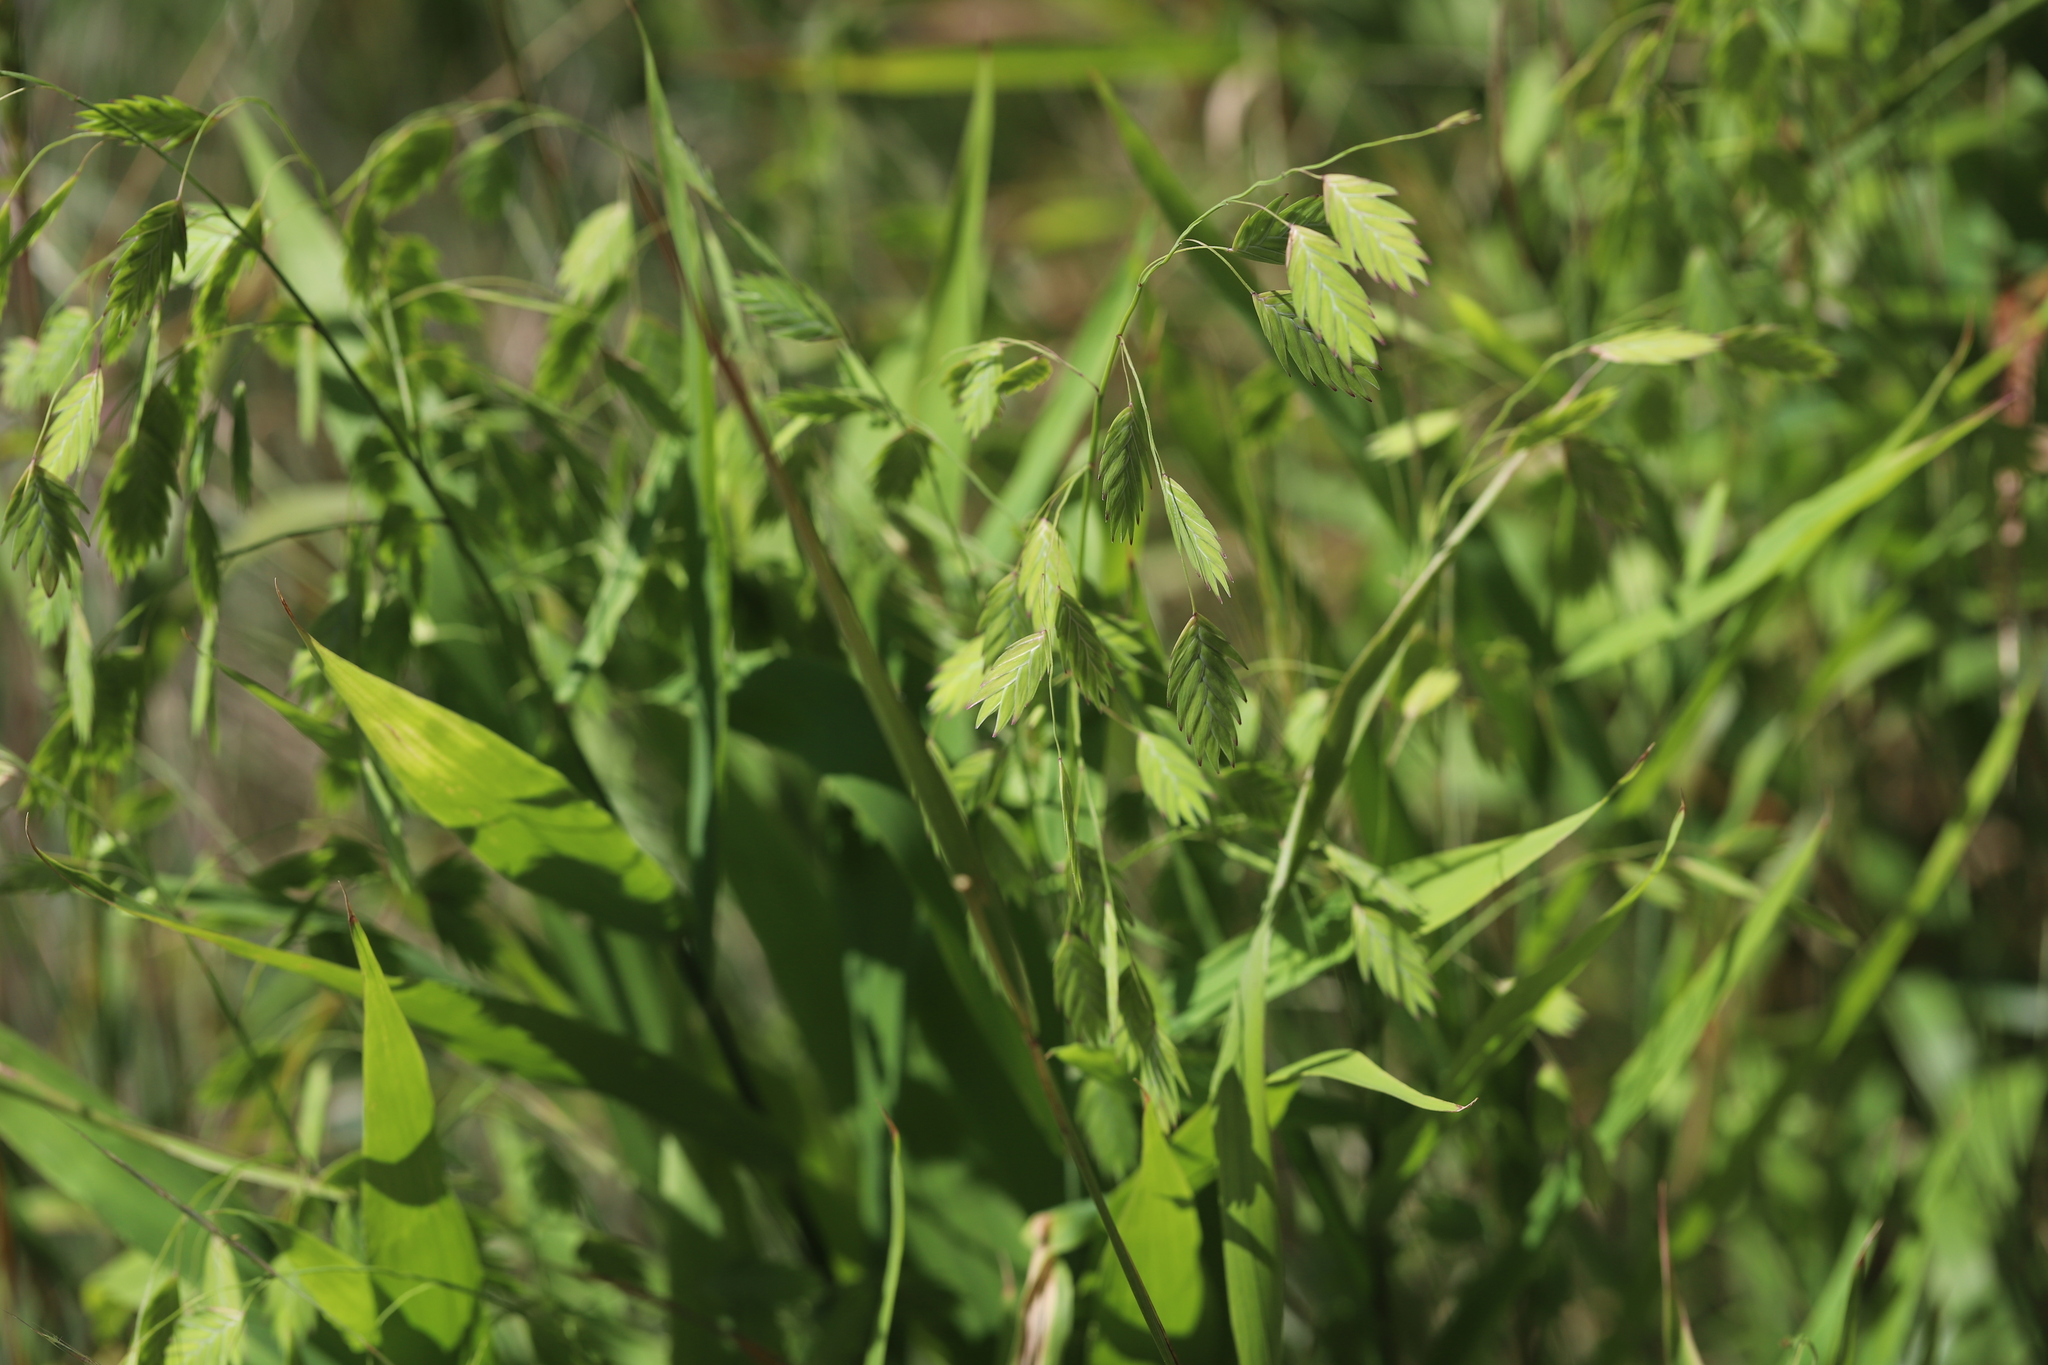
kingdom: Plantae
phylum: Tracheophyta
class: Liliopsida
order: Poales
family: Poaceae
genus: Chasmanthium
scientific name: Chasmanthium latifolium
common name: Broad-leaved chasmanthium
